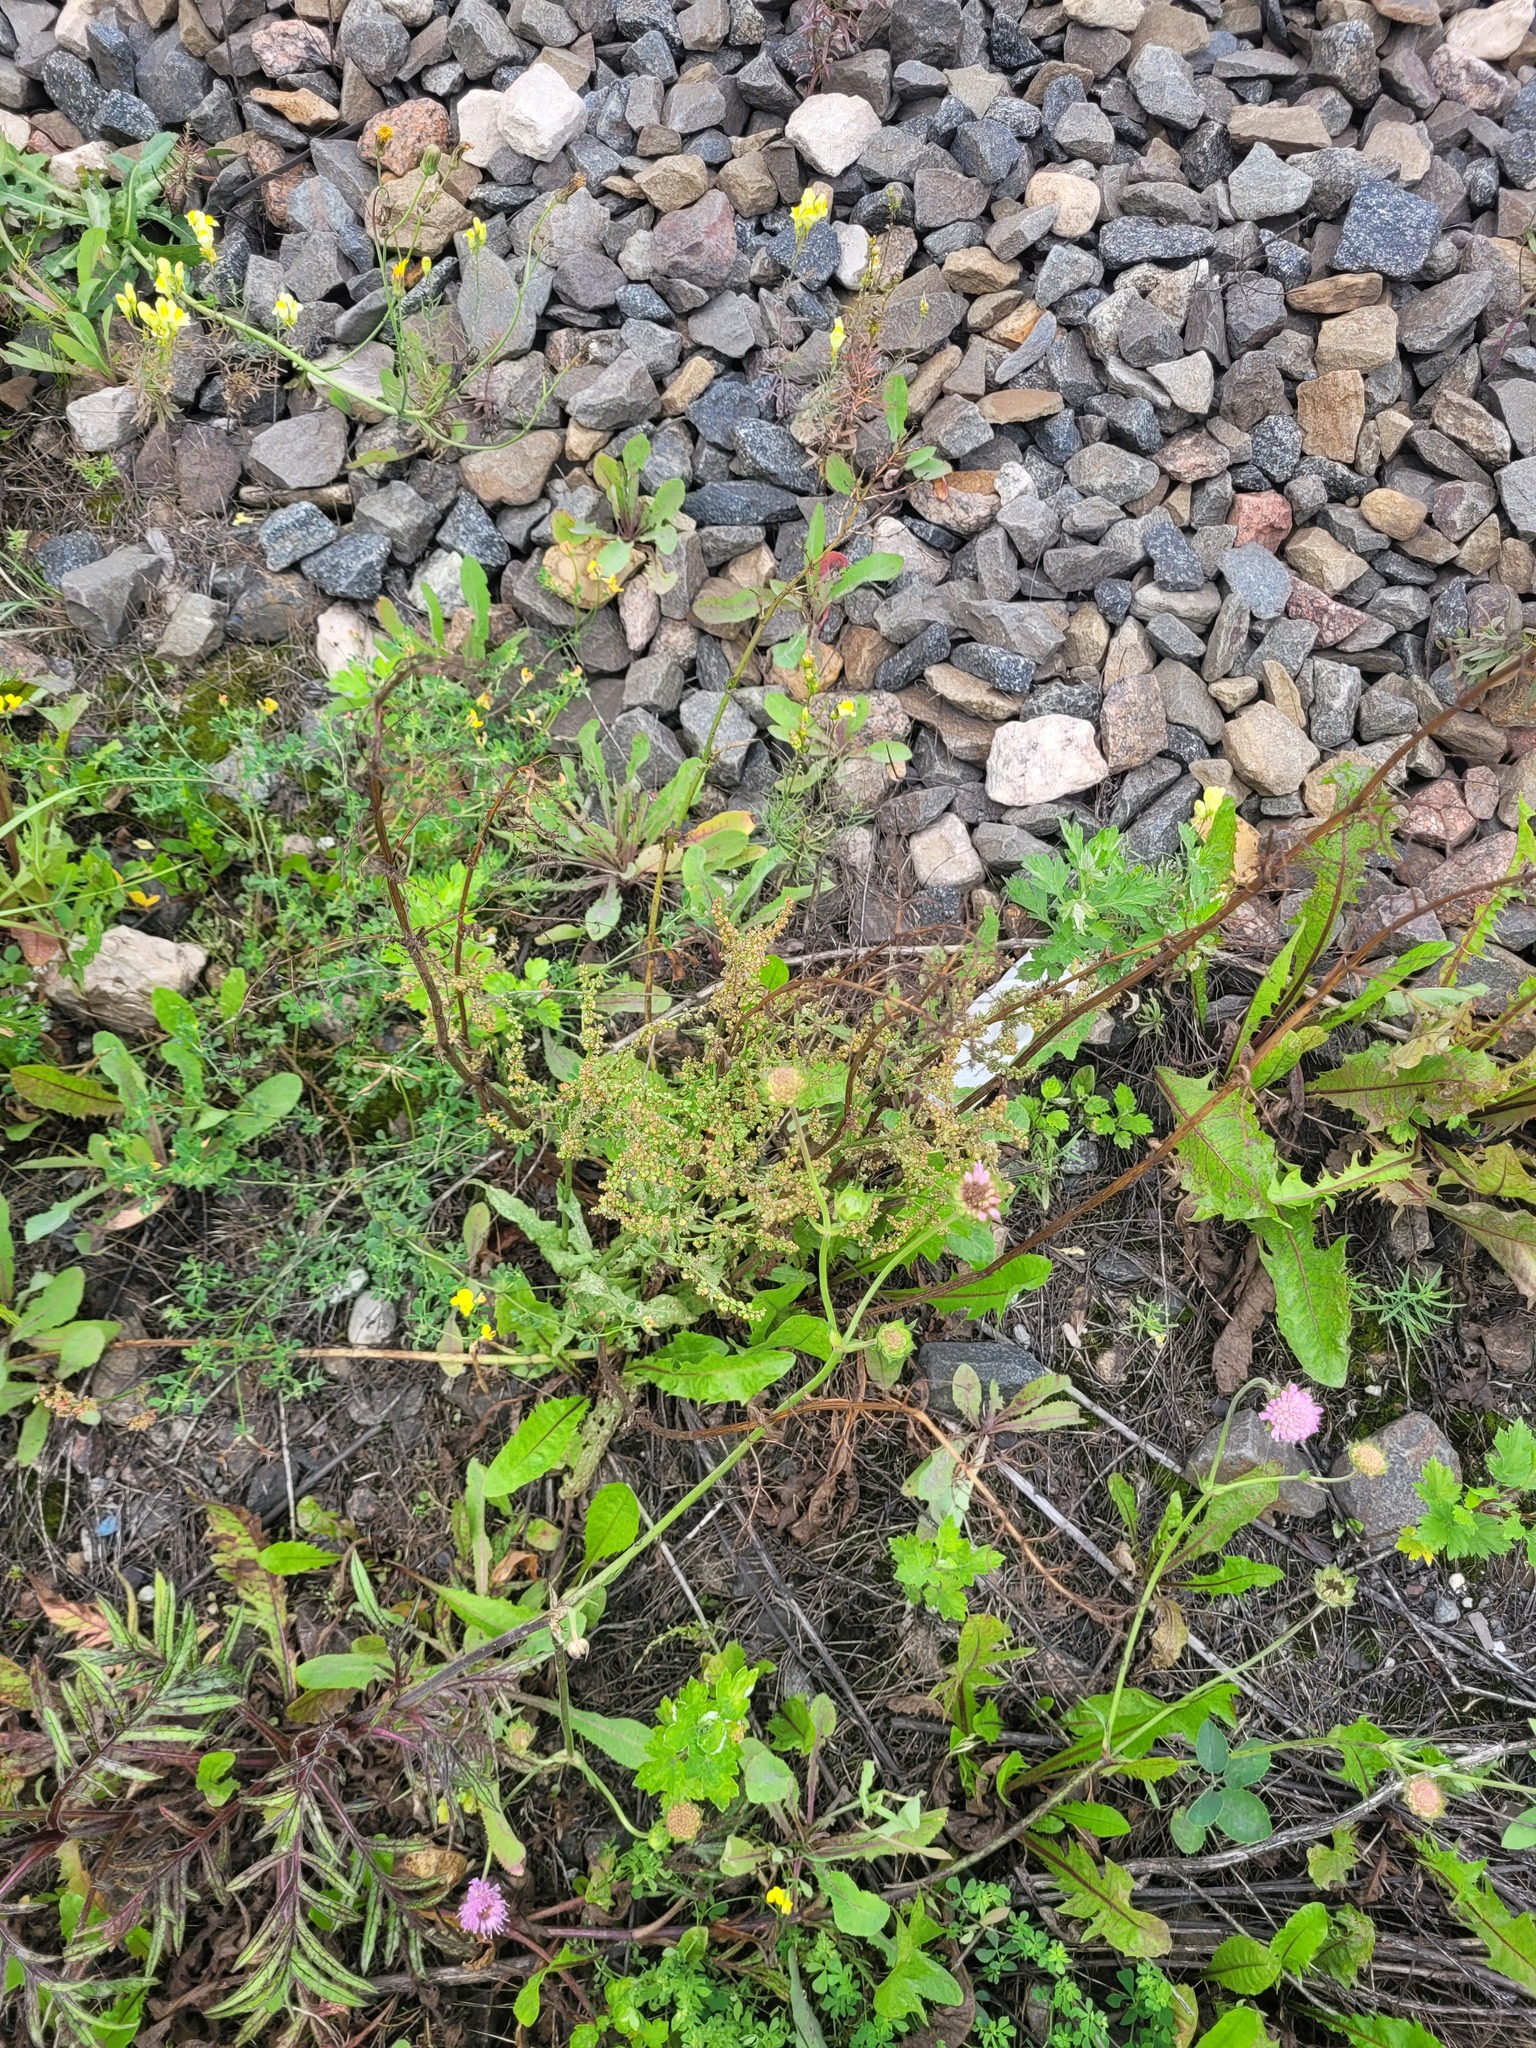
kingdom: Plantae
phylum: Tracheophyta
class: Magnoliopsida
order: Caryophyllales
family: Polygonaceae
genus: Rumex
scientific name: Rumex thyrsiflorus
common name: Garden sorrel
